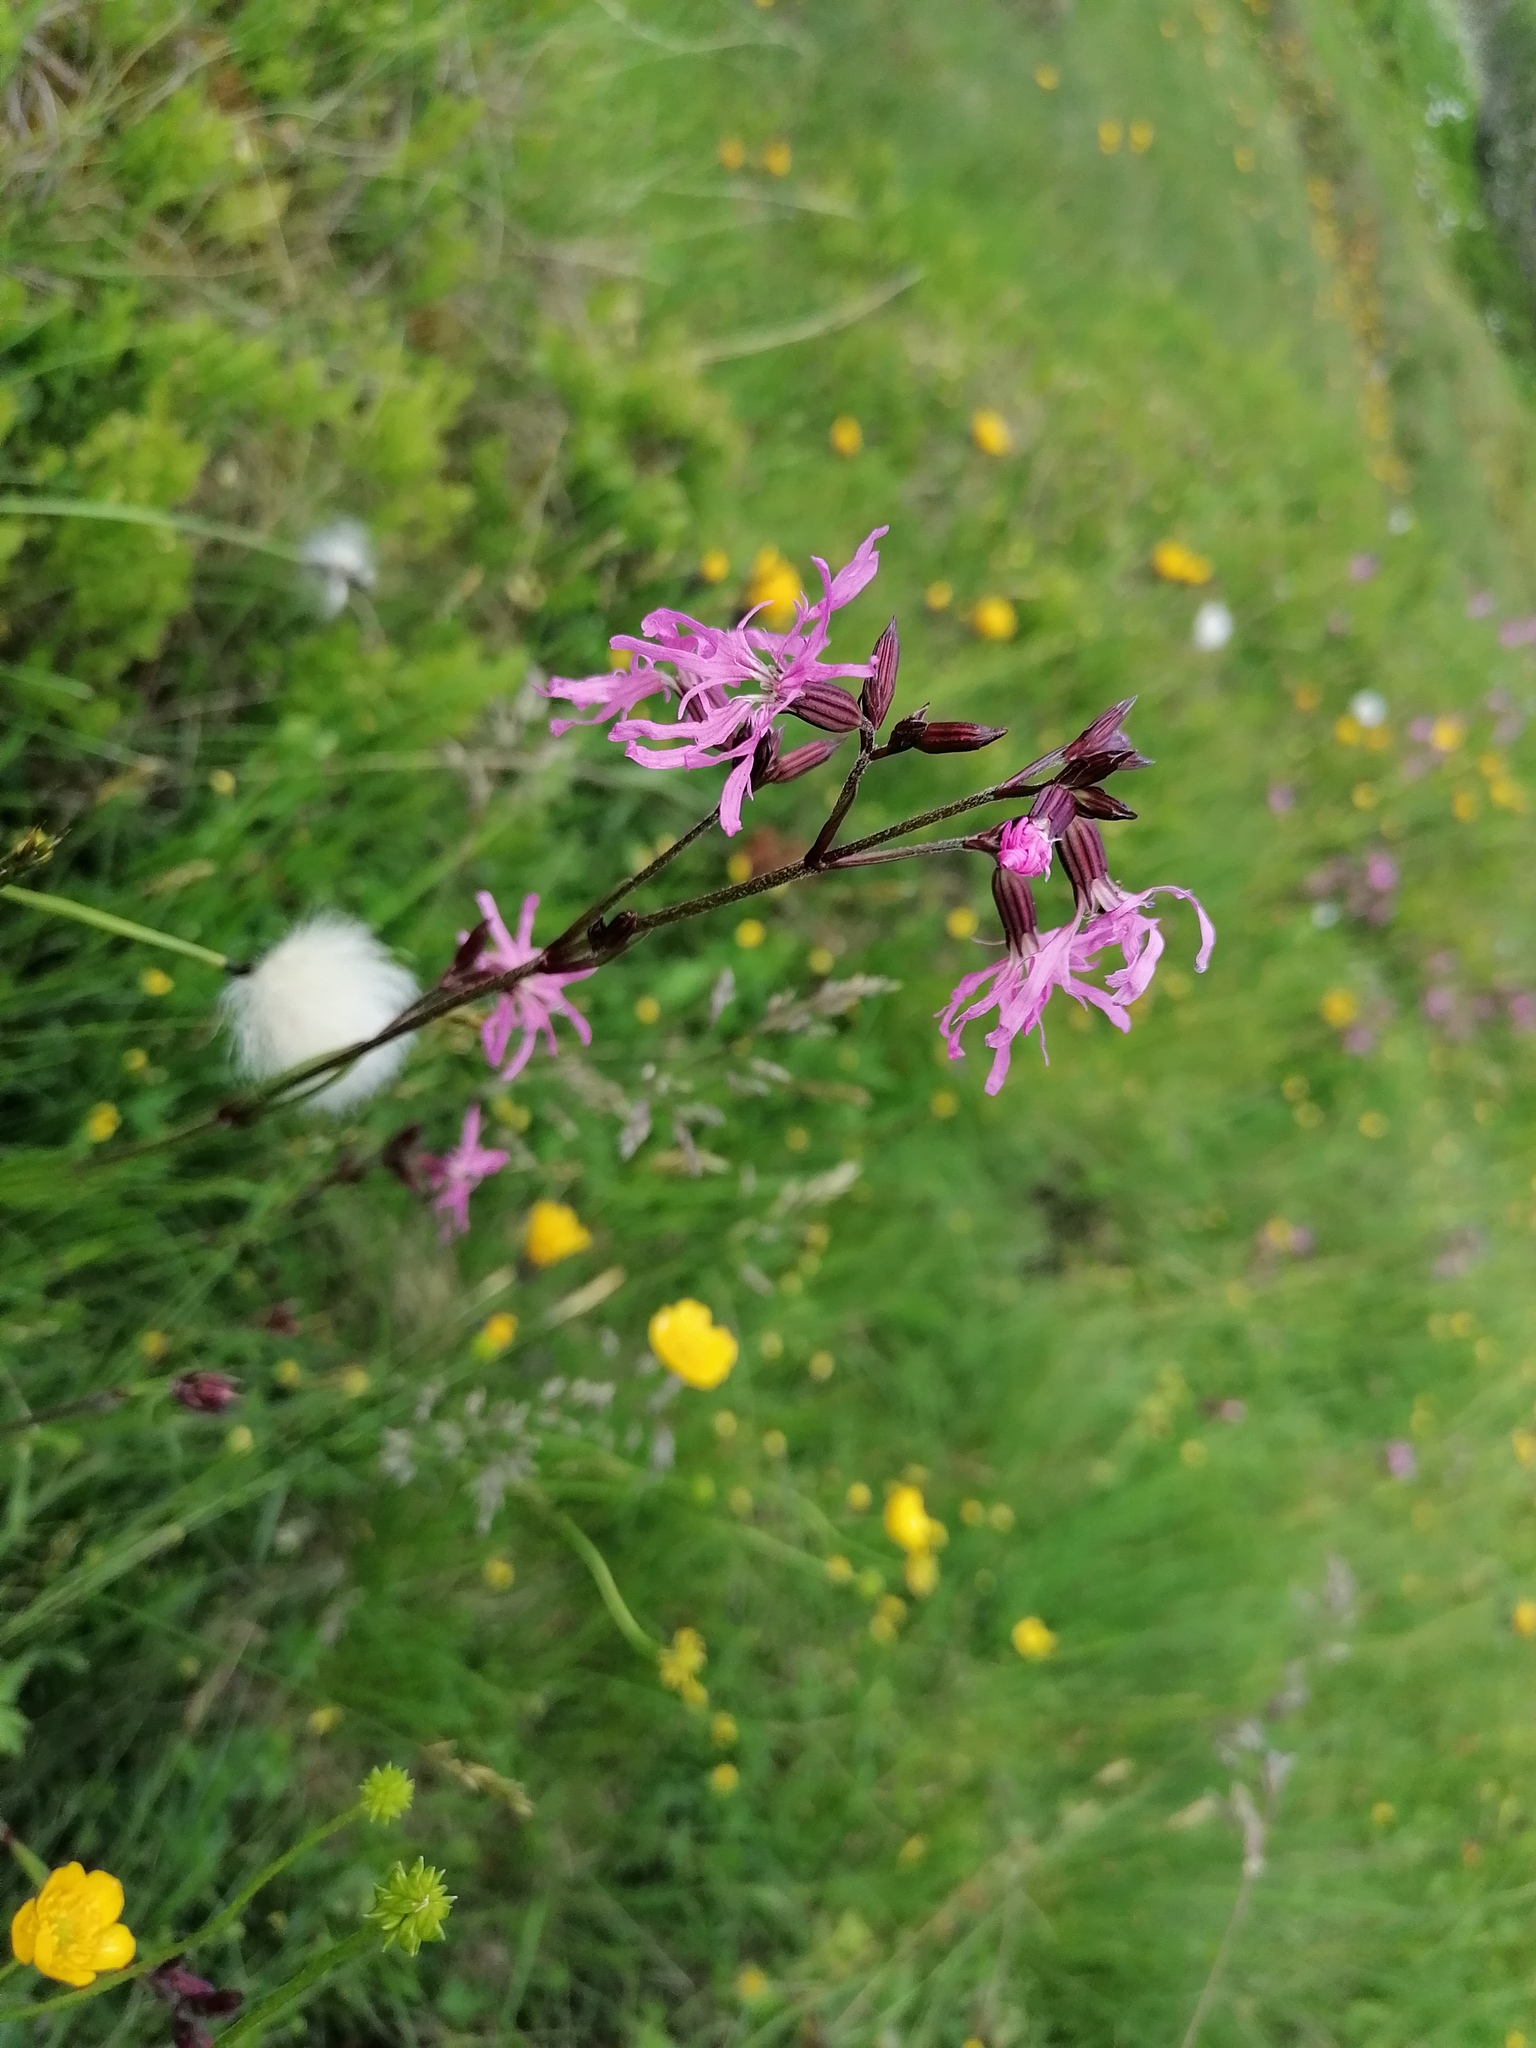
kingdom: Plantae
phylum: Tracheophyta
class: Magnoliopsida
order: Caryophyllales
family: Caryophyllaceae
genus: Silene
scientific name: Silene flos-cuculi
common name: Ragged-robin
